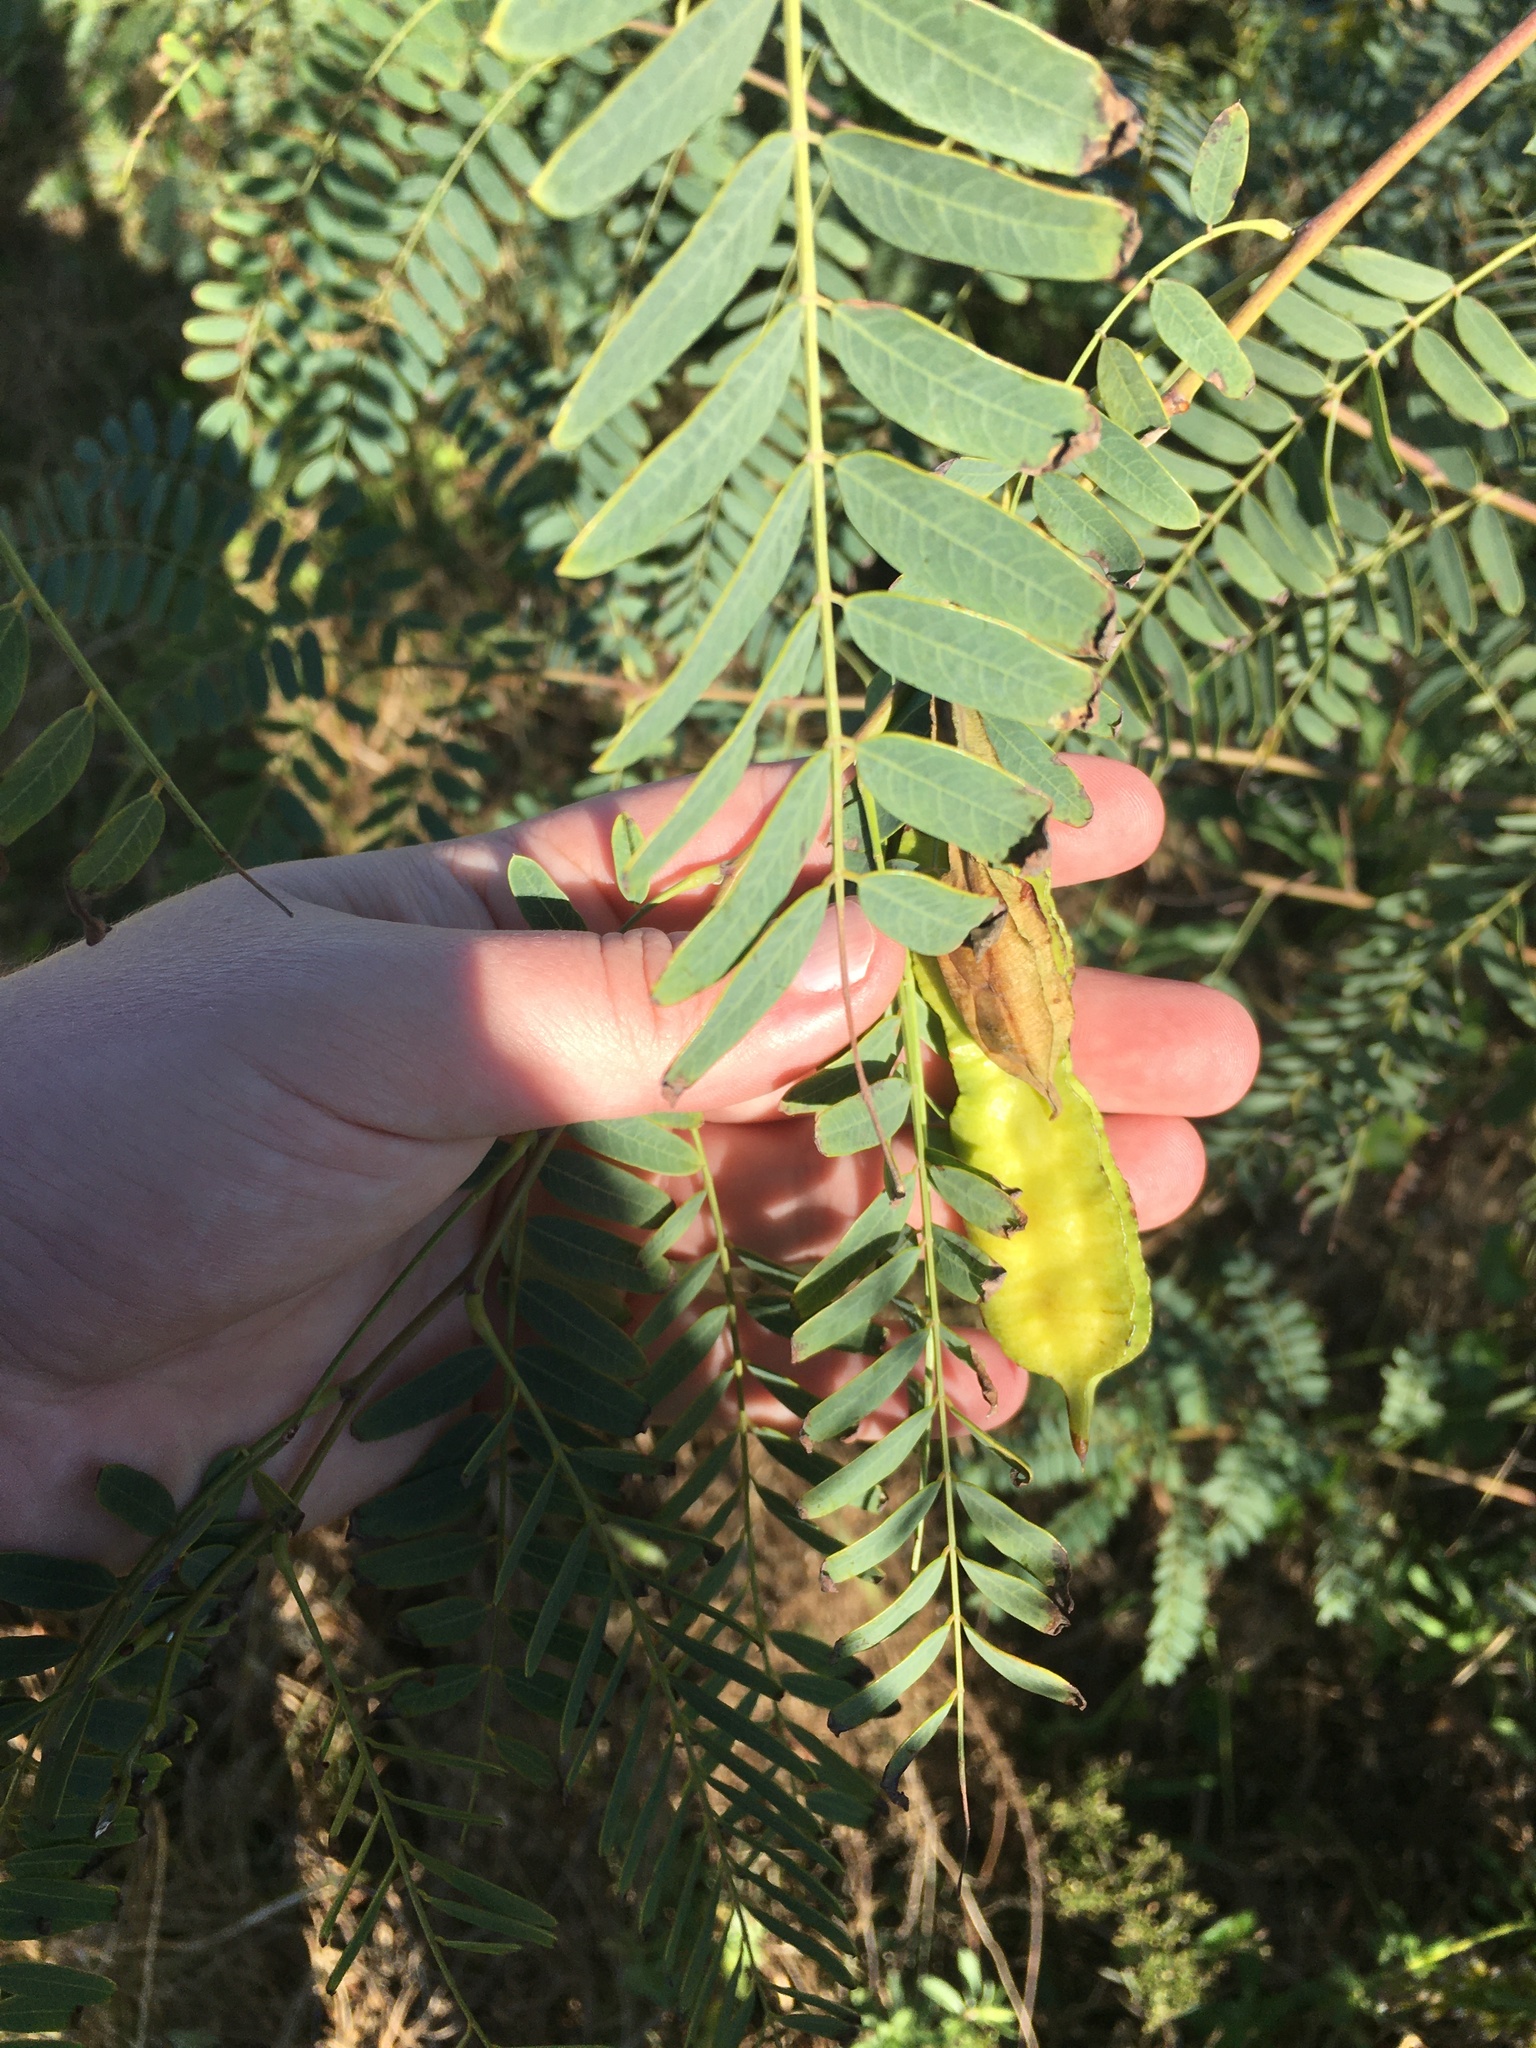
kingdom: Plantae
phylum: Tracheophyta
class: Magnoliopsida
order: Fabales
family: Fabaceae
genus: Sesbania
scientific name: Sesbania drummondii
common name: Poison-bean
